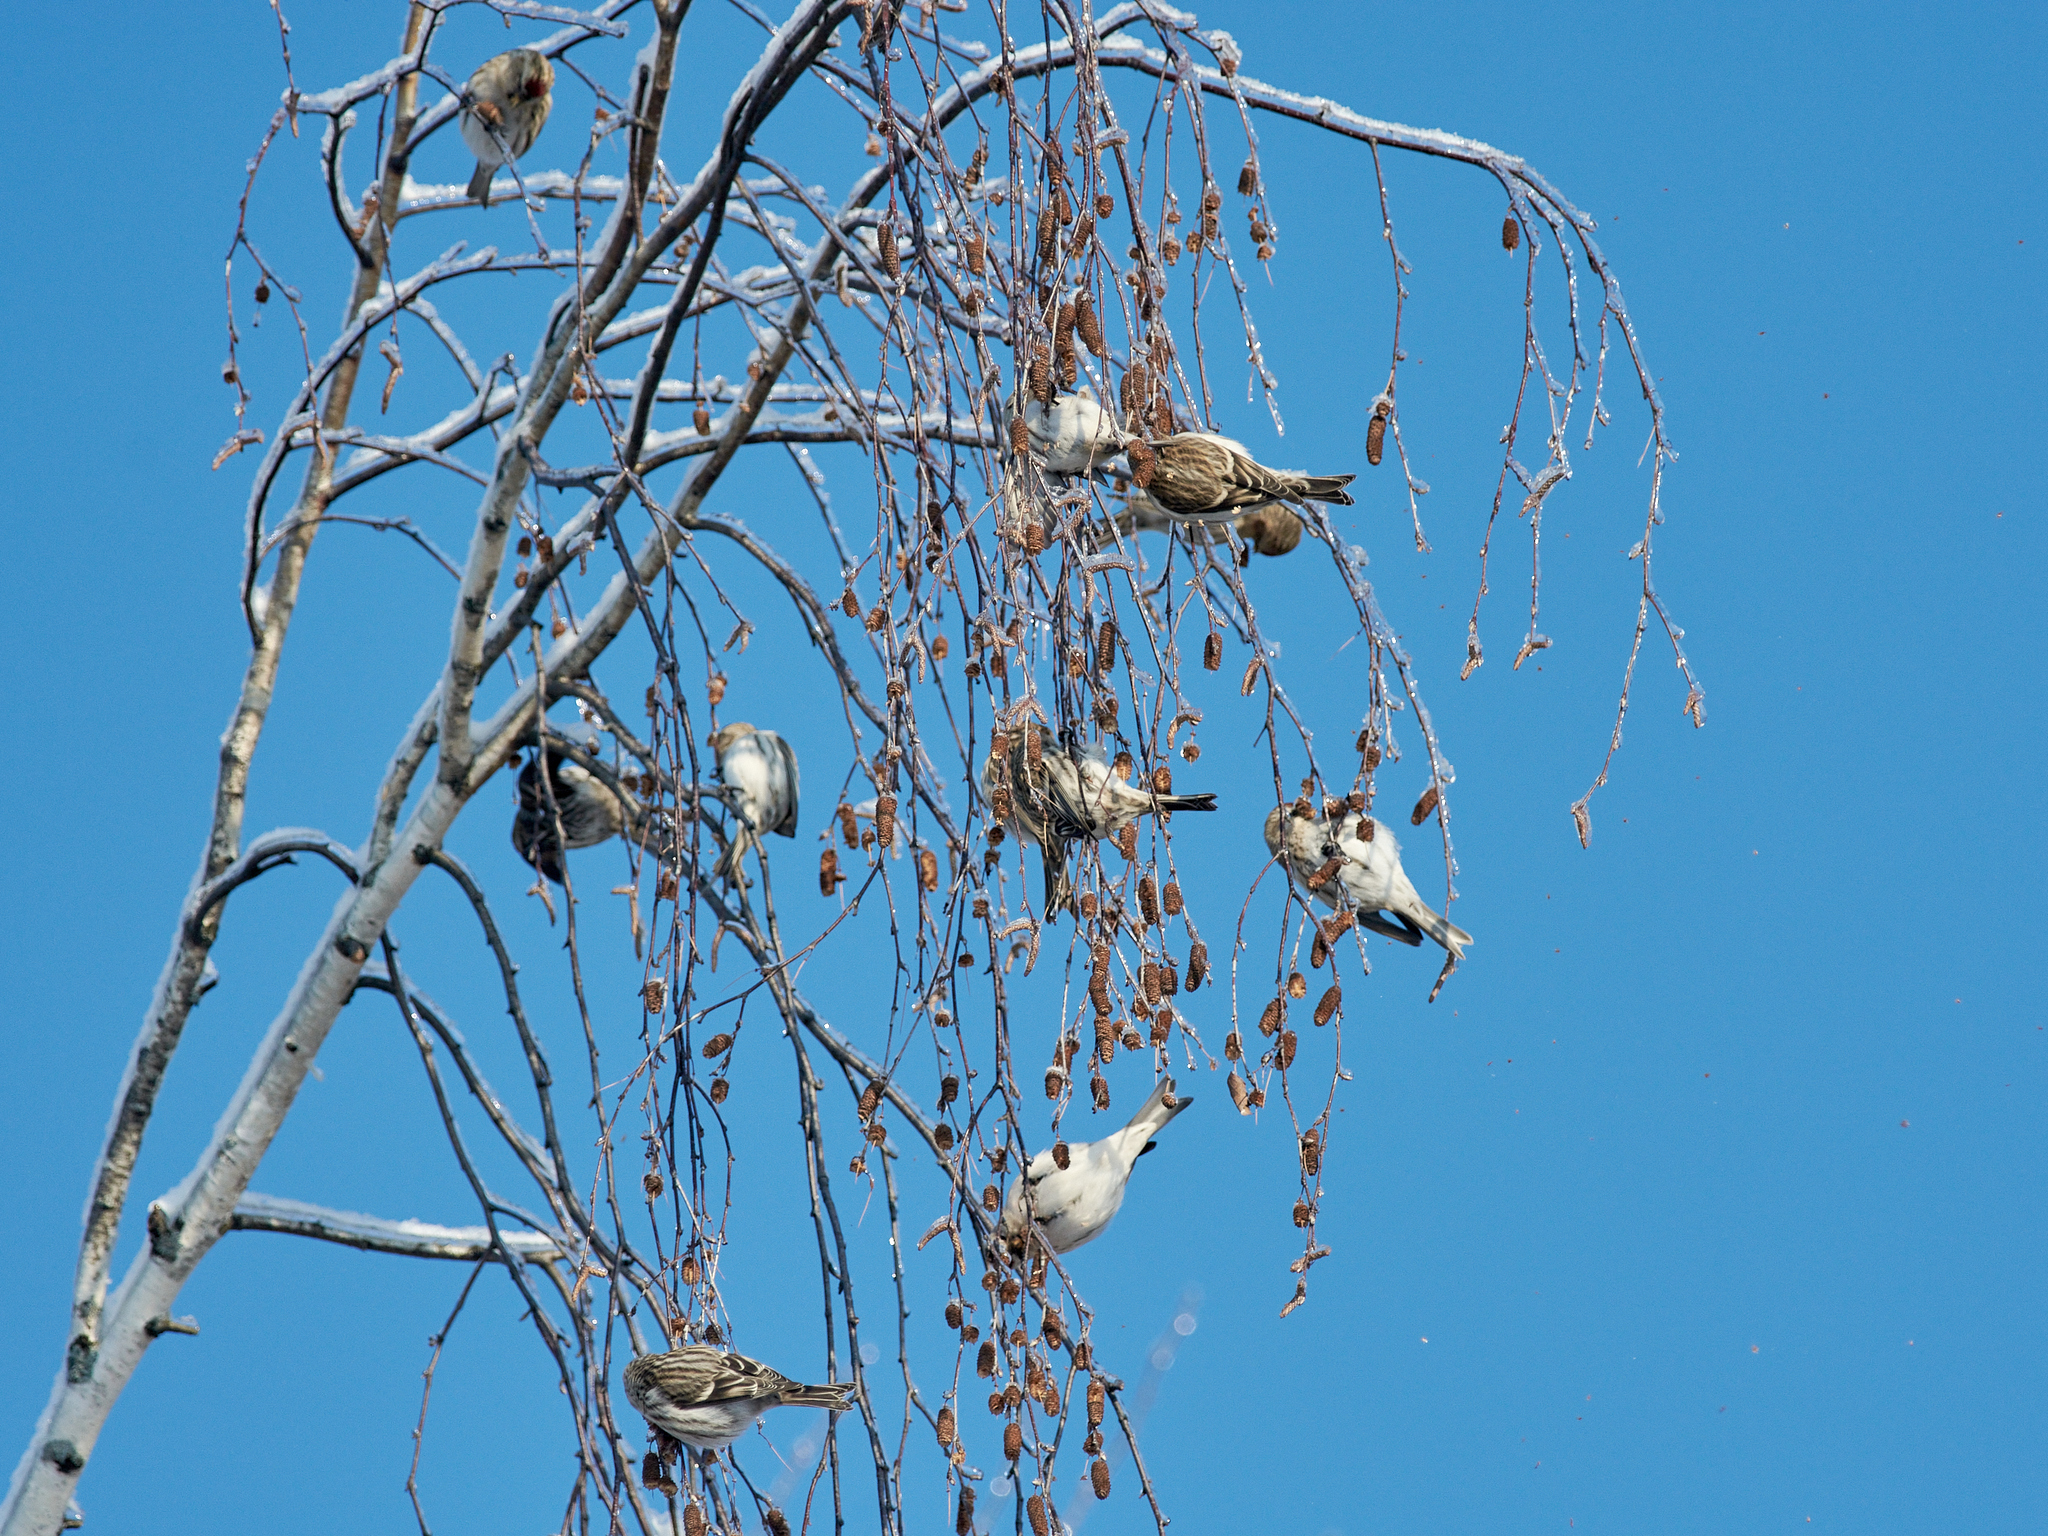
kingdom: Animalia
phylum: Chordata
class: Aves
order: Passeriformes
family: Fringillidae
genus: Acanthis
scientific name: Acanthis flammea
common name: Common redpoll
